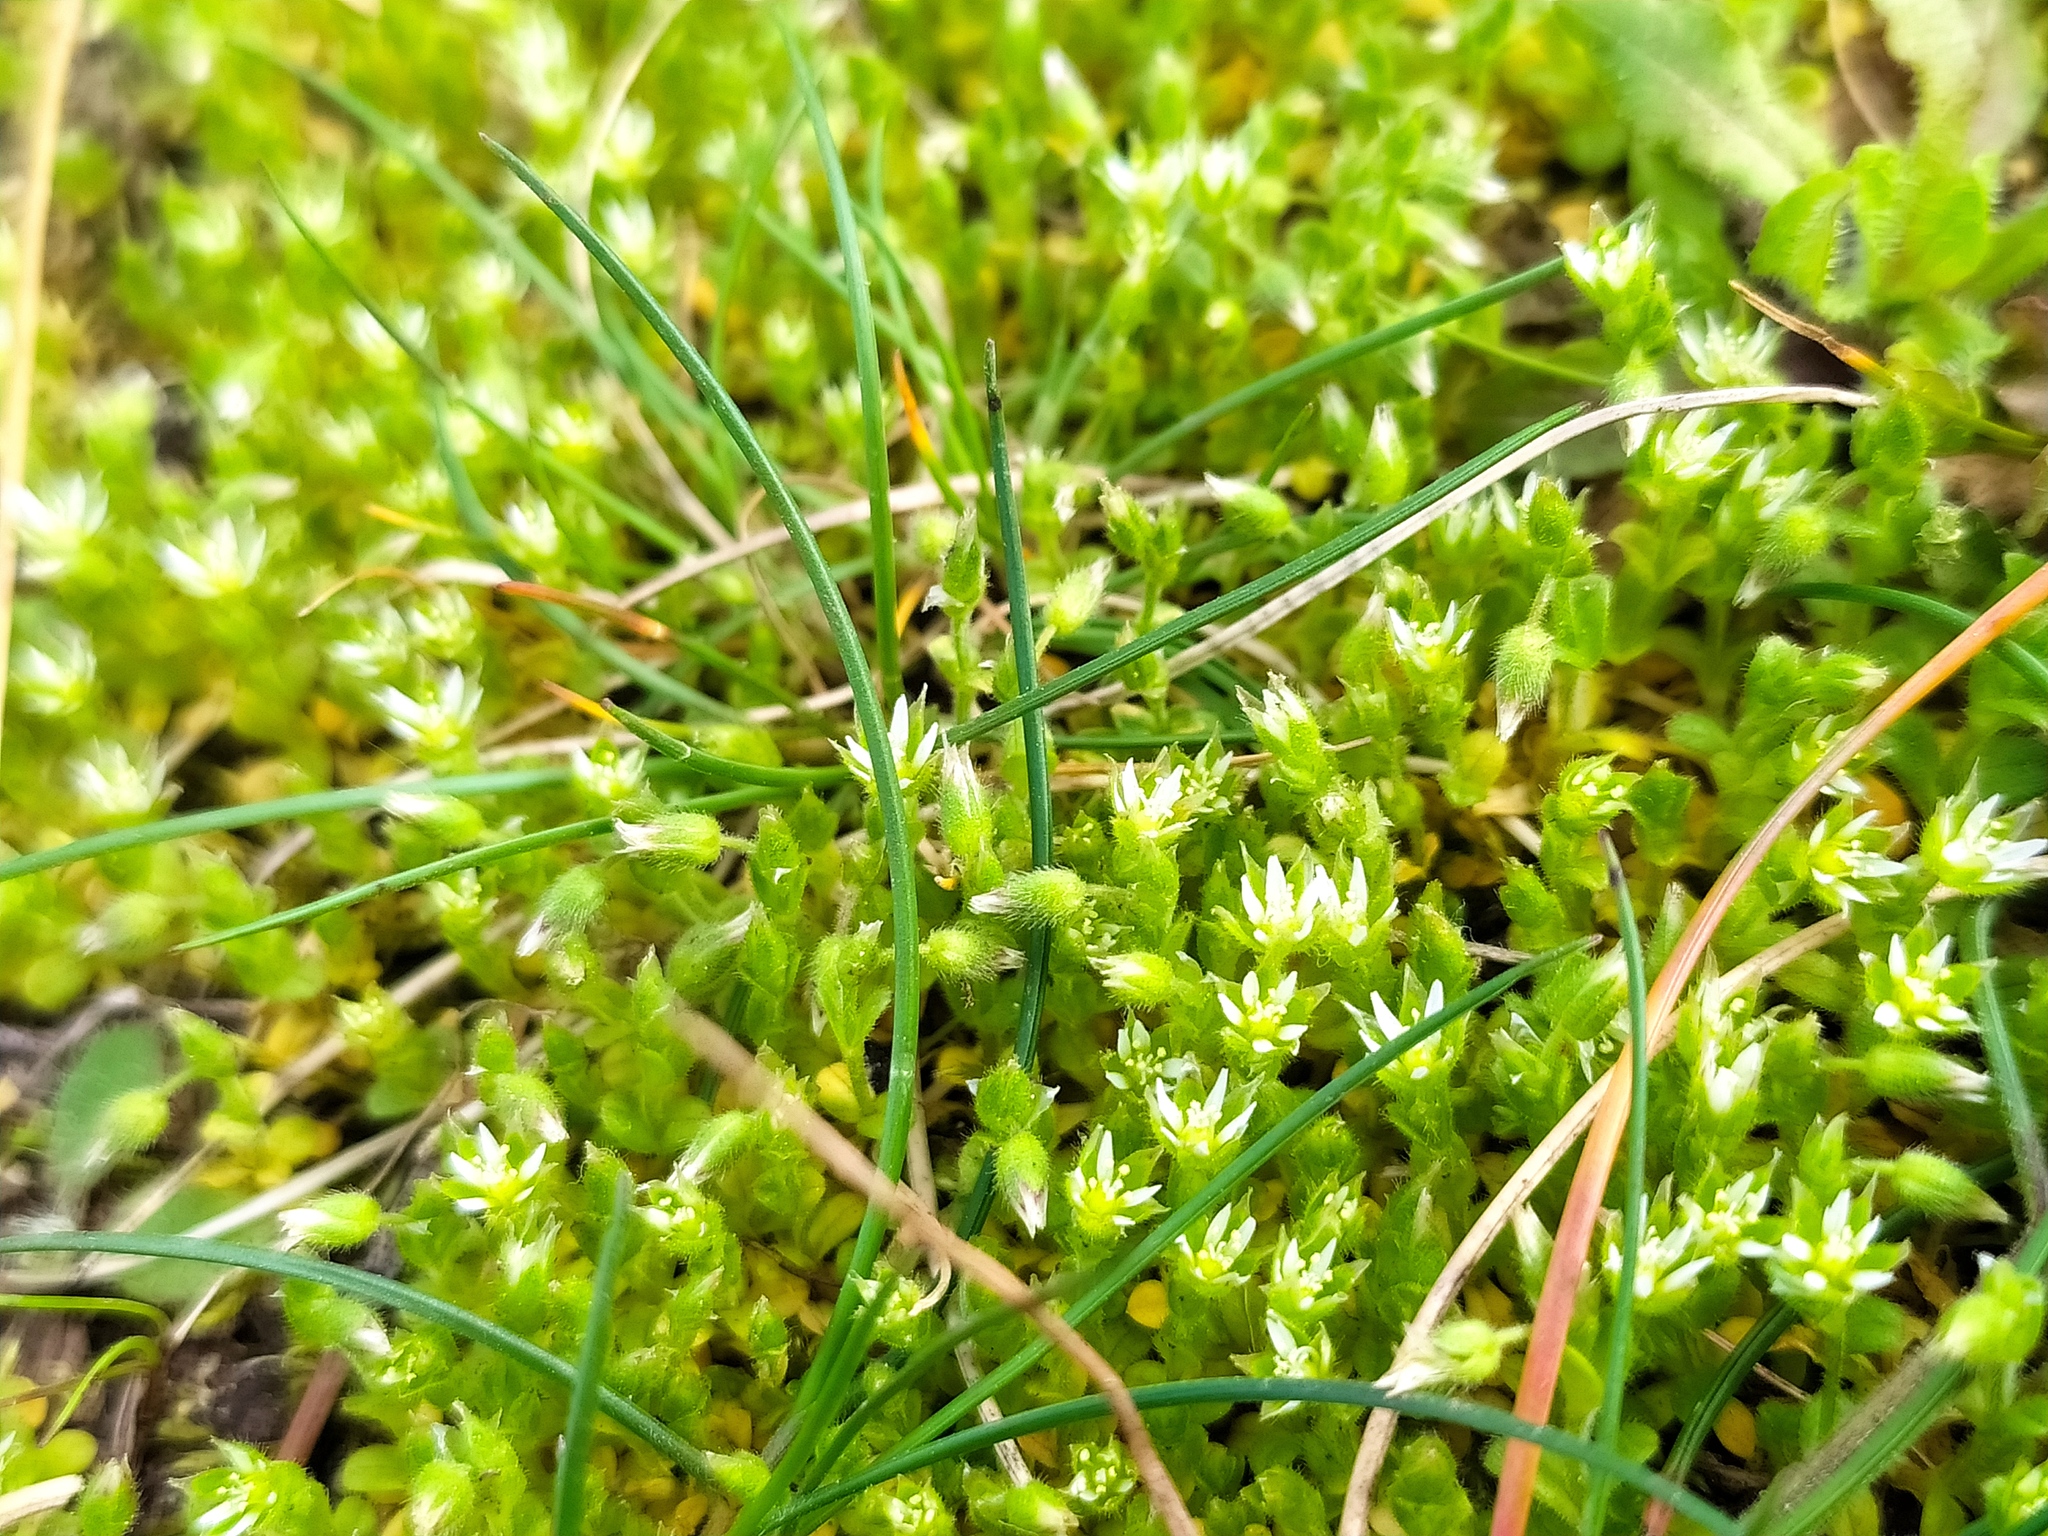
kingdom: Plantae
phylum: Tracheophyta
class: Magnoliopsida
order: Caryophyllales
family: Caryophyllaceae
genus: Cerastium
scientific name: Cerastium semidecandrum
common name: Little mouse-ear
